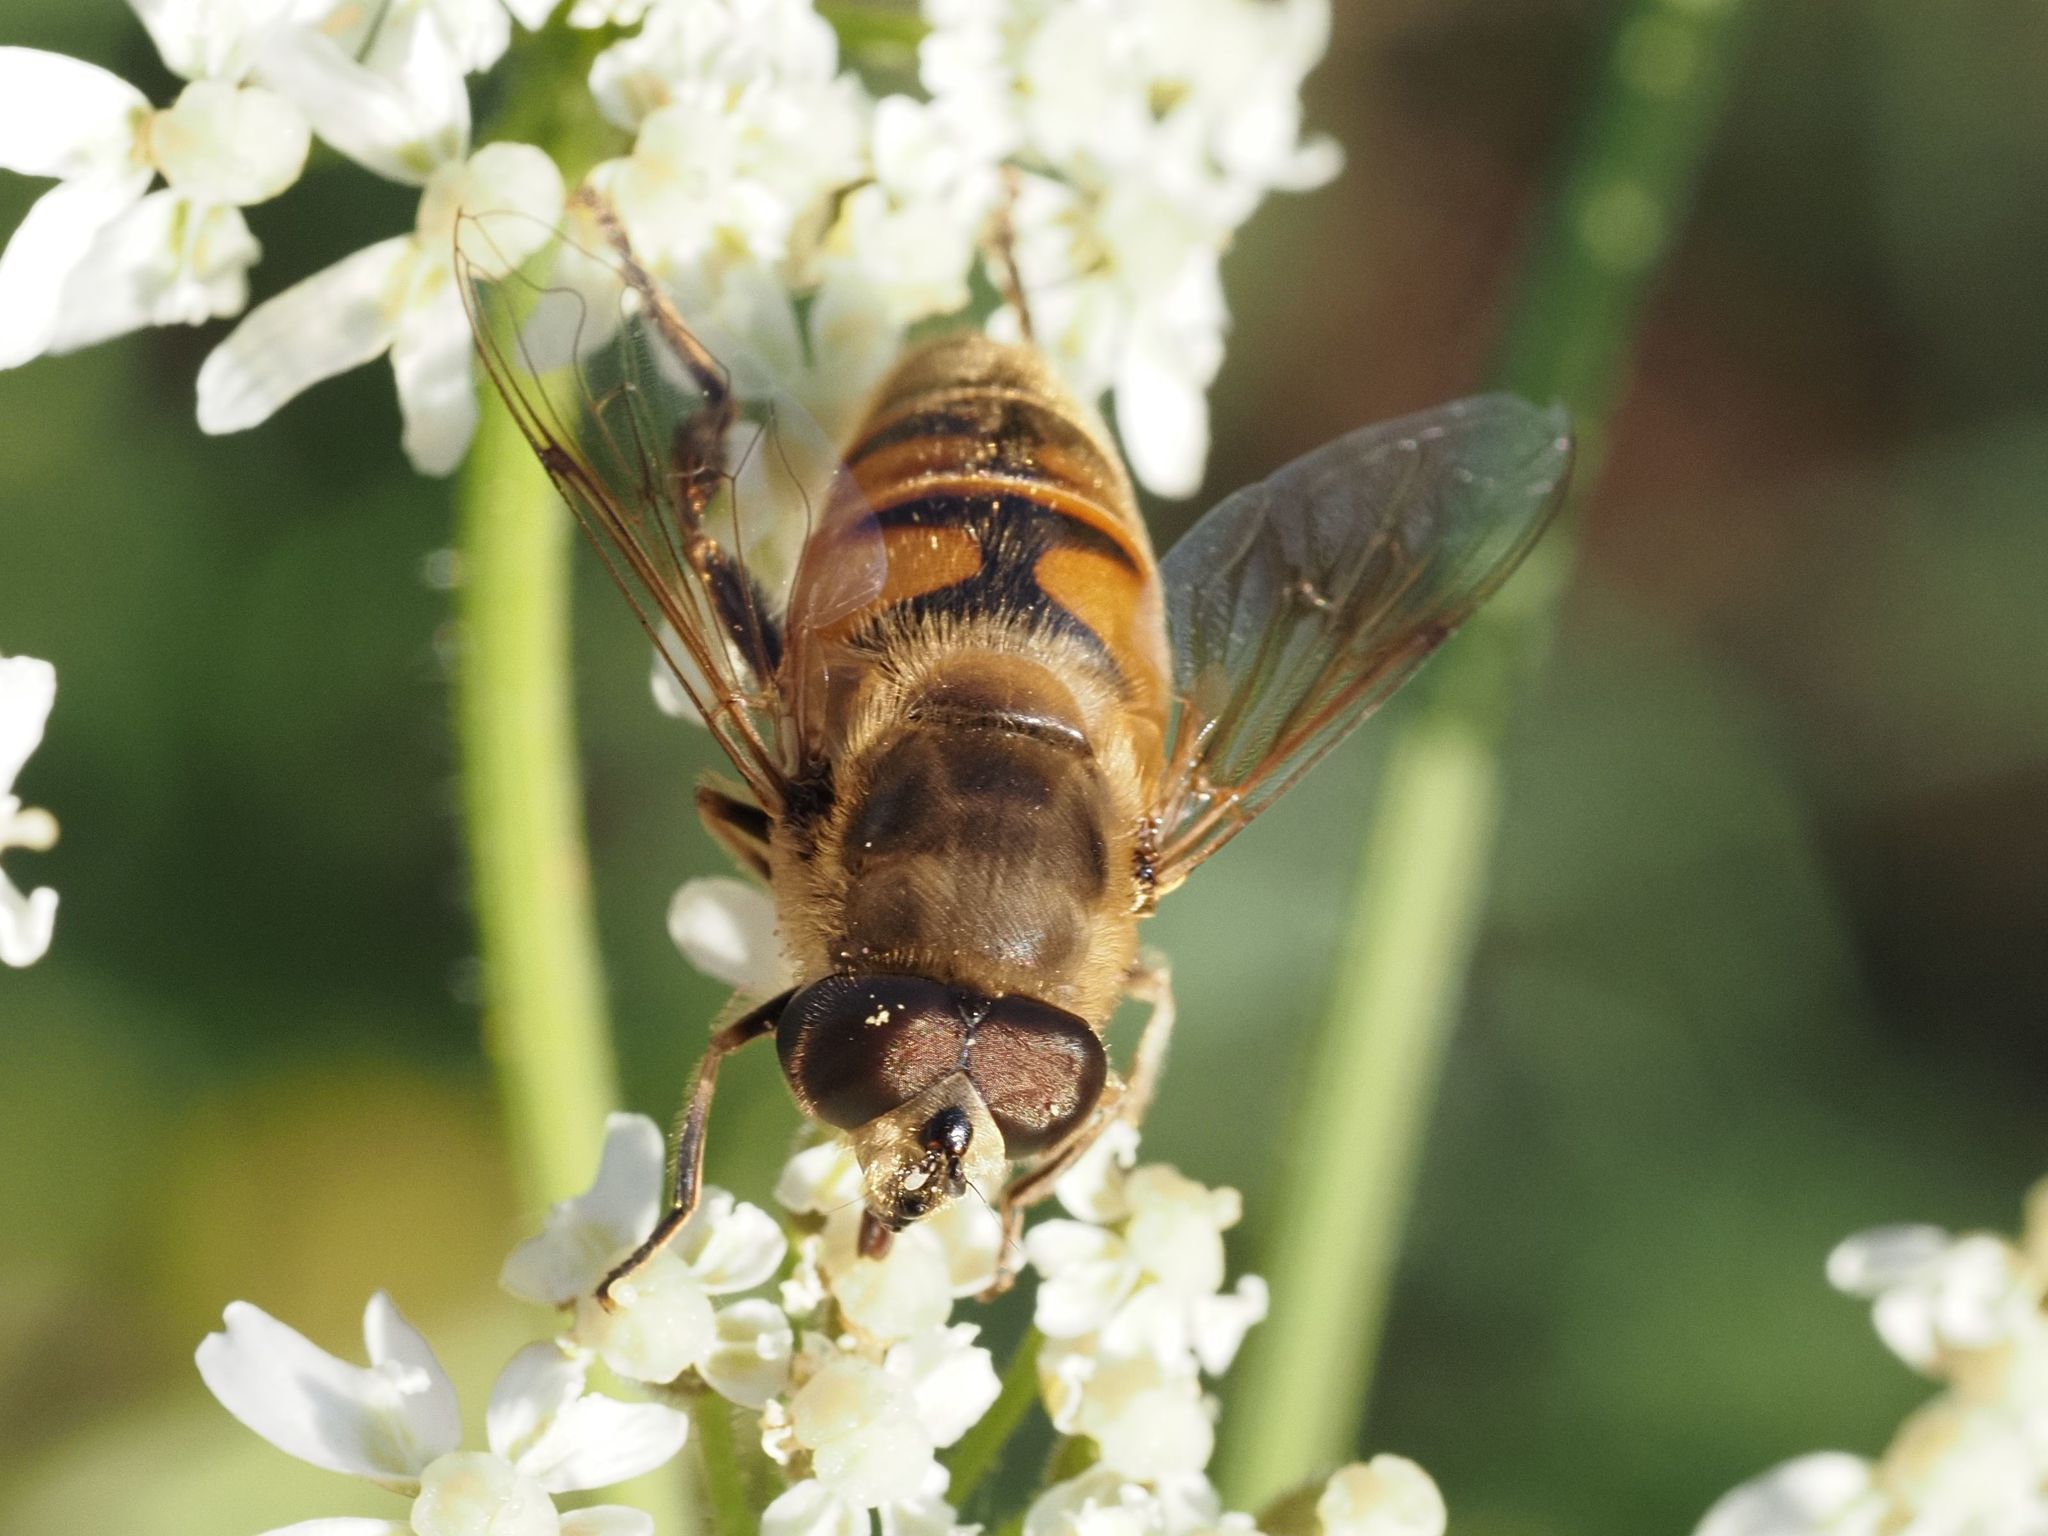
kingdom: Animalia
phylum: Arthropoda
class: Insecta
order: Diptera
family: Syrphidae
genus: Eristalis
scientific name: Eristalis tenax
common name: Drone fly
